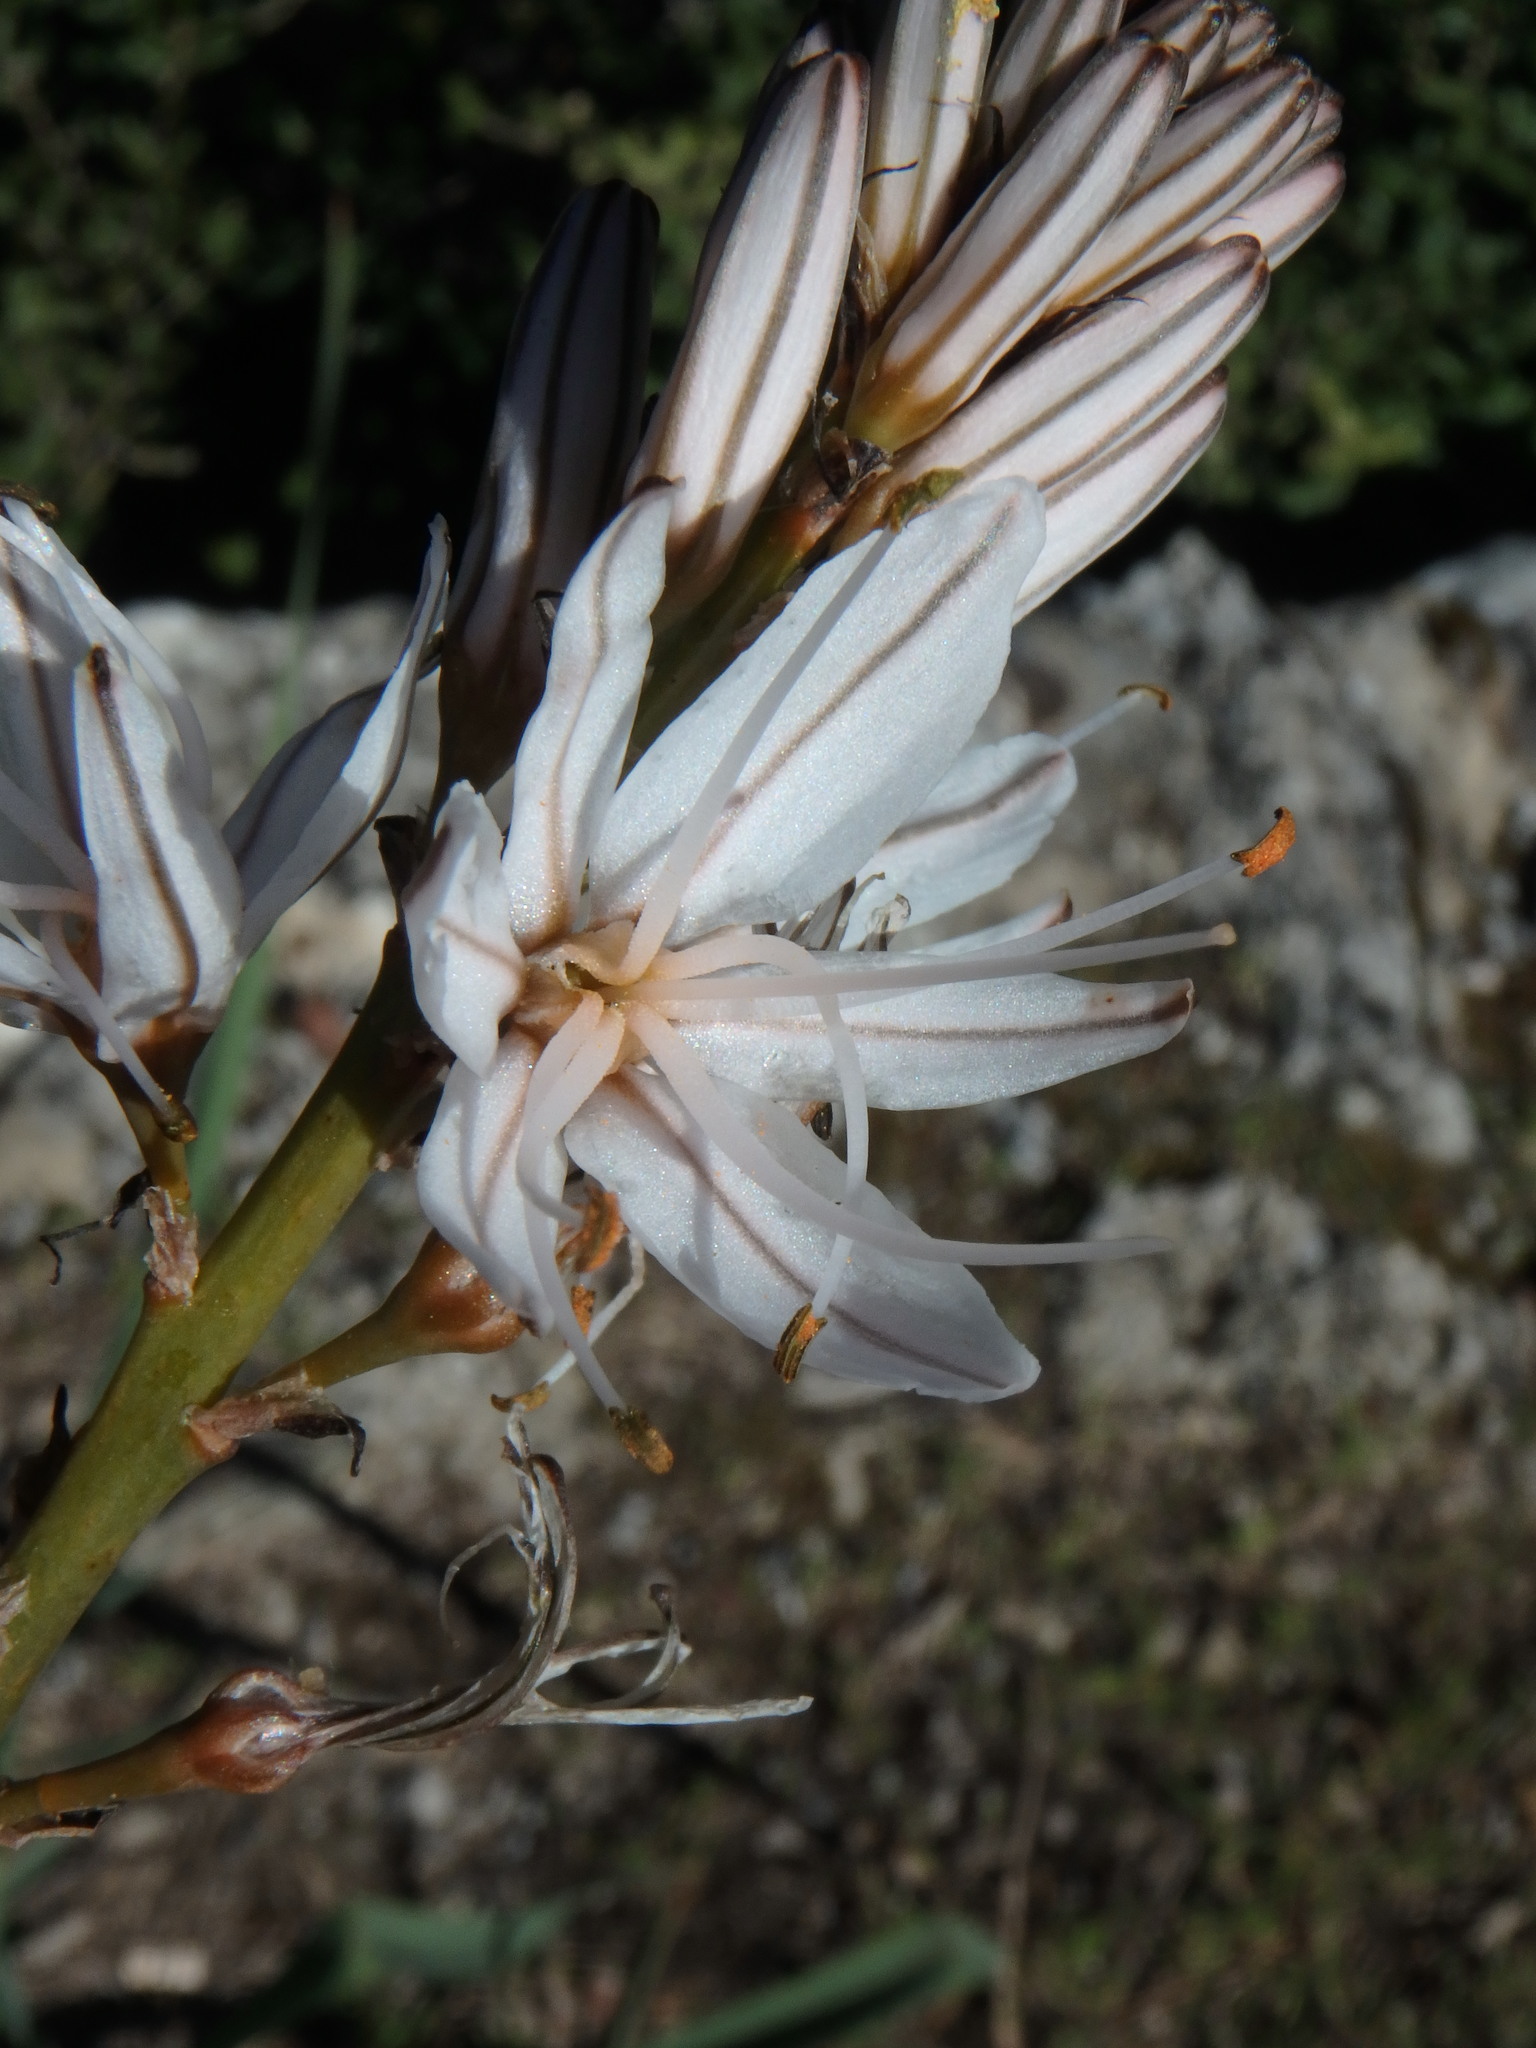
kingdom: Plantae
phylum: Tracheophyta
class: Liliopsida
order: Asparagales
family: Asphodelaceae
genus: Asphodelus
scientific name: Asphodelus ramosus
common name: Silverrod
